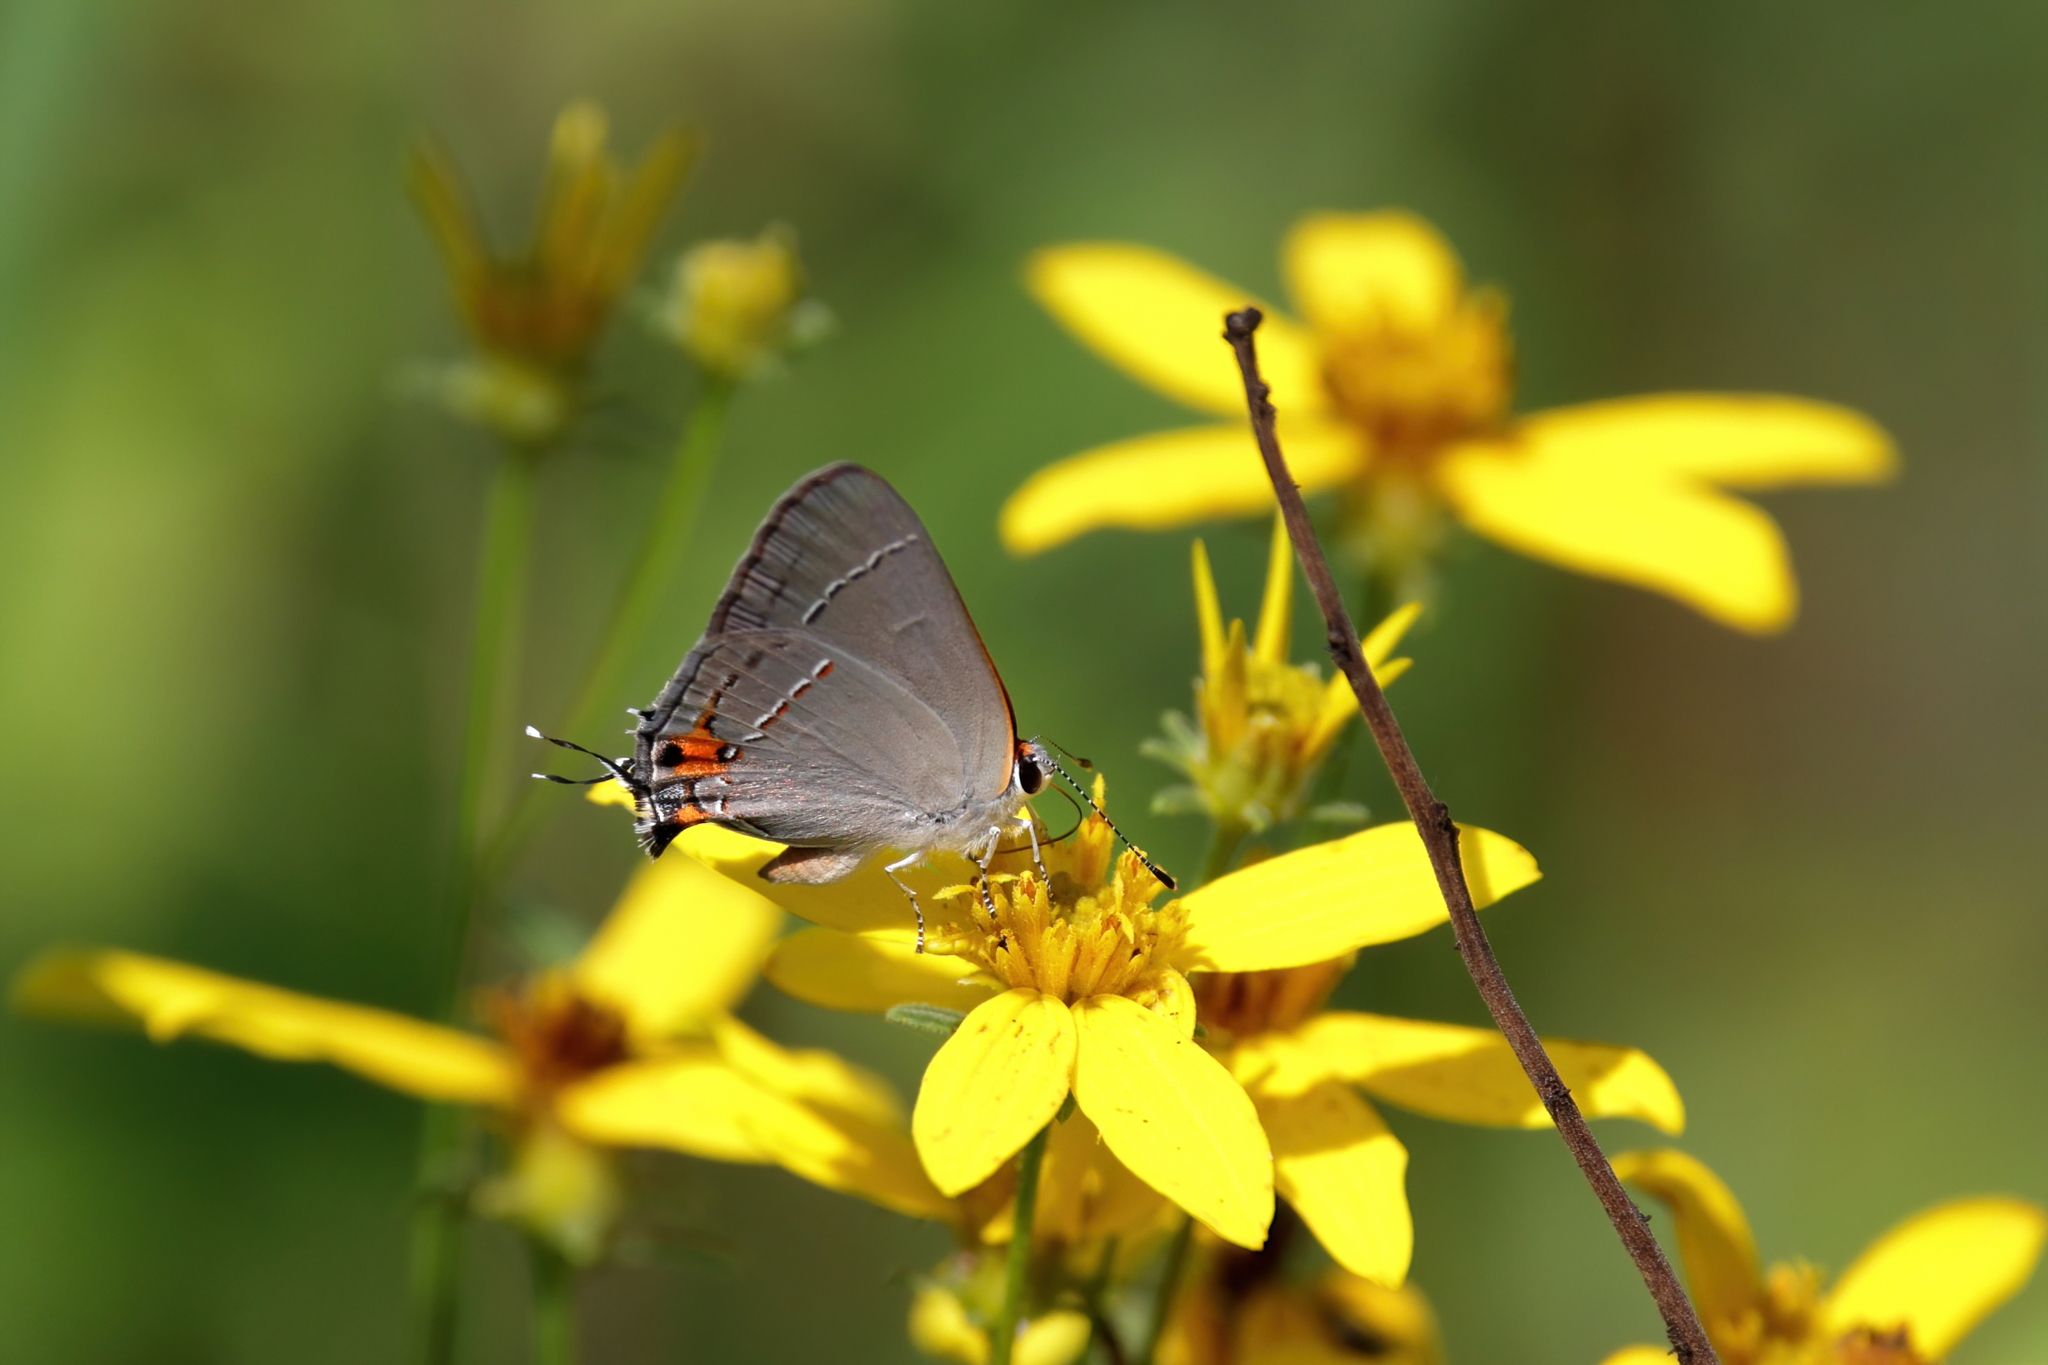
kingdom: Animalia
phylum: Arthropoda
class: Insecta
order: Lepidoptera
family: Lycaenidae
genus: Strymon
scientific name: Strymon melinus
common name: Gray hairstreak
